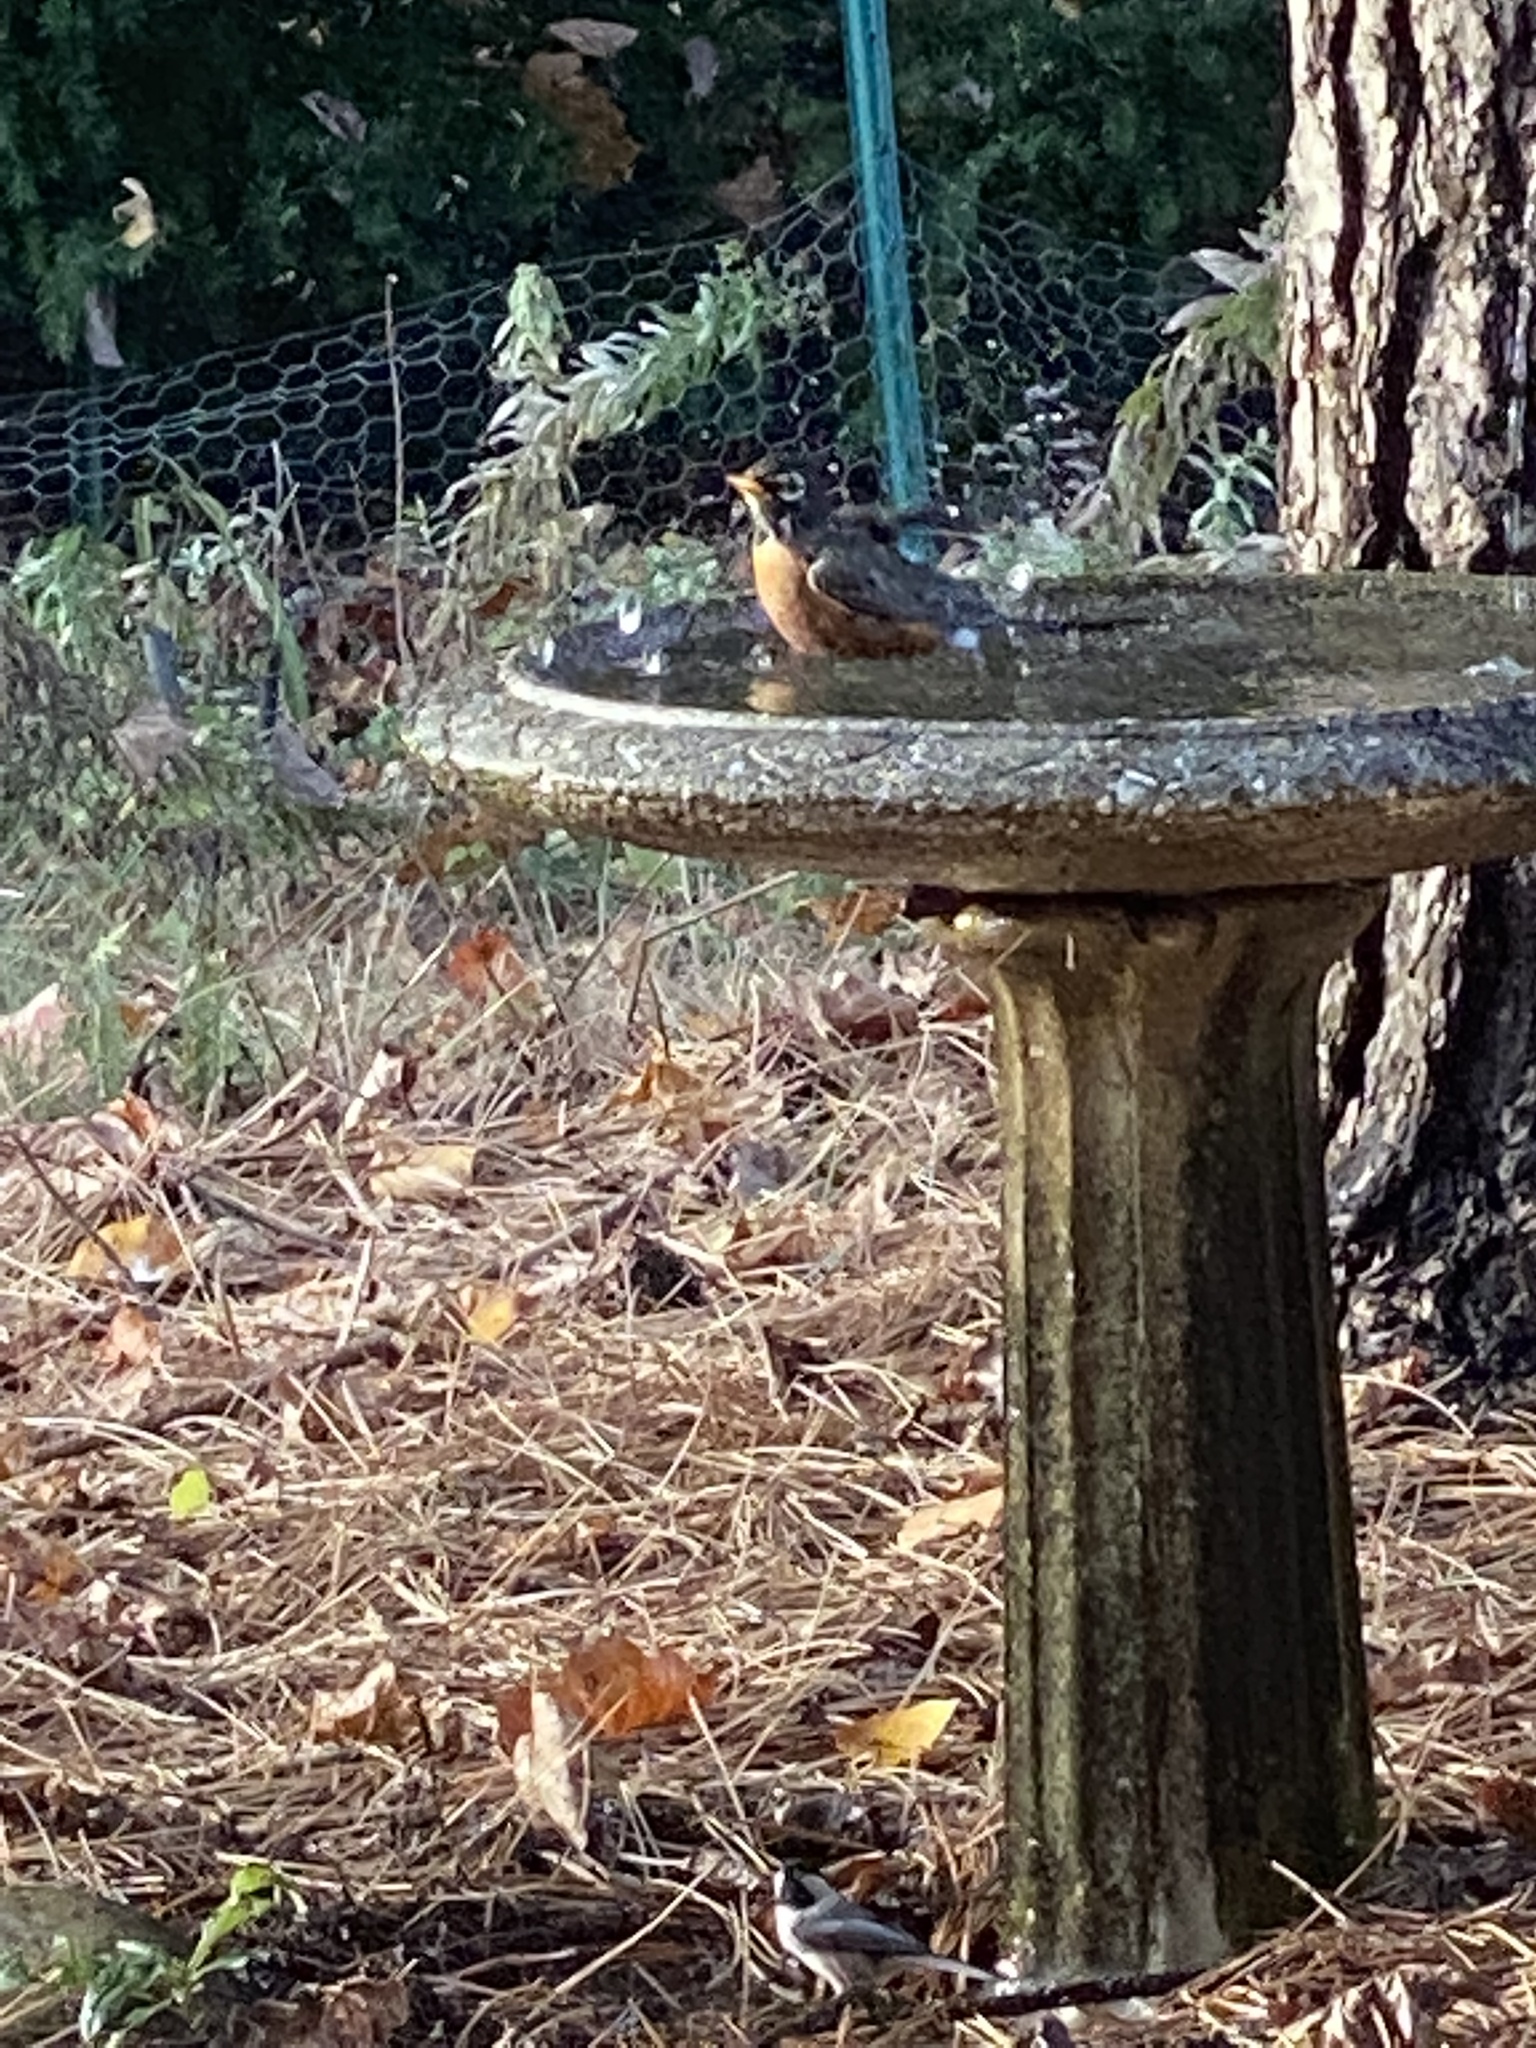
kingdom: Animalia
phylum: Chordata
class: Aves
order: Passeriformes
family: Turdidae
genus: Turdus
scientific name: Turdus migratorius
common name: American robin
